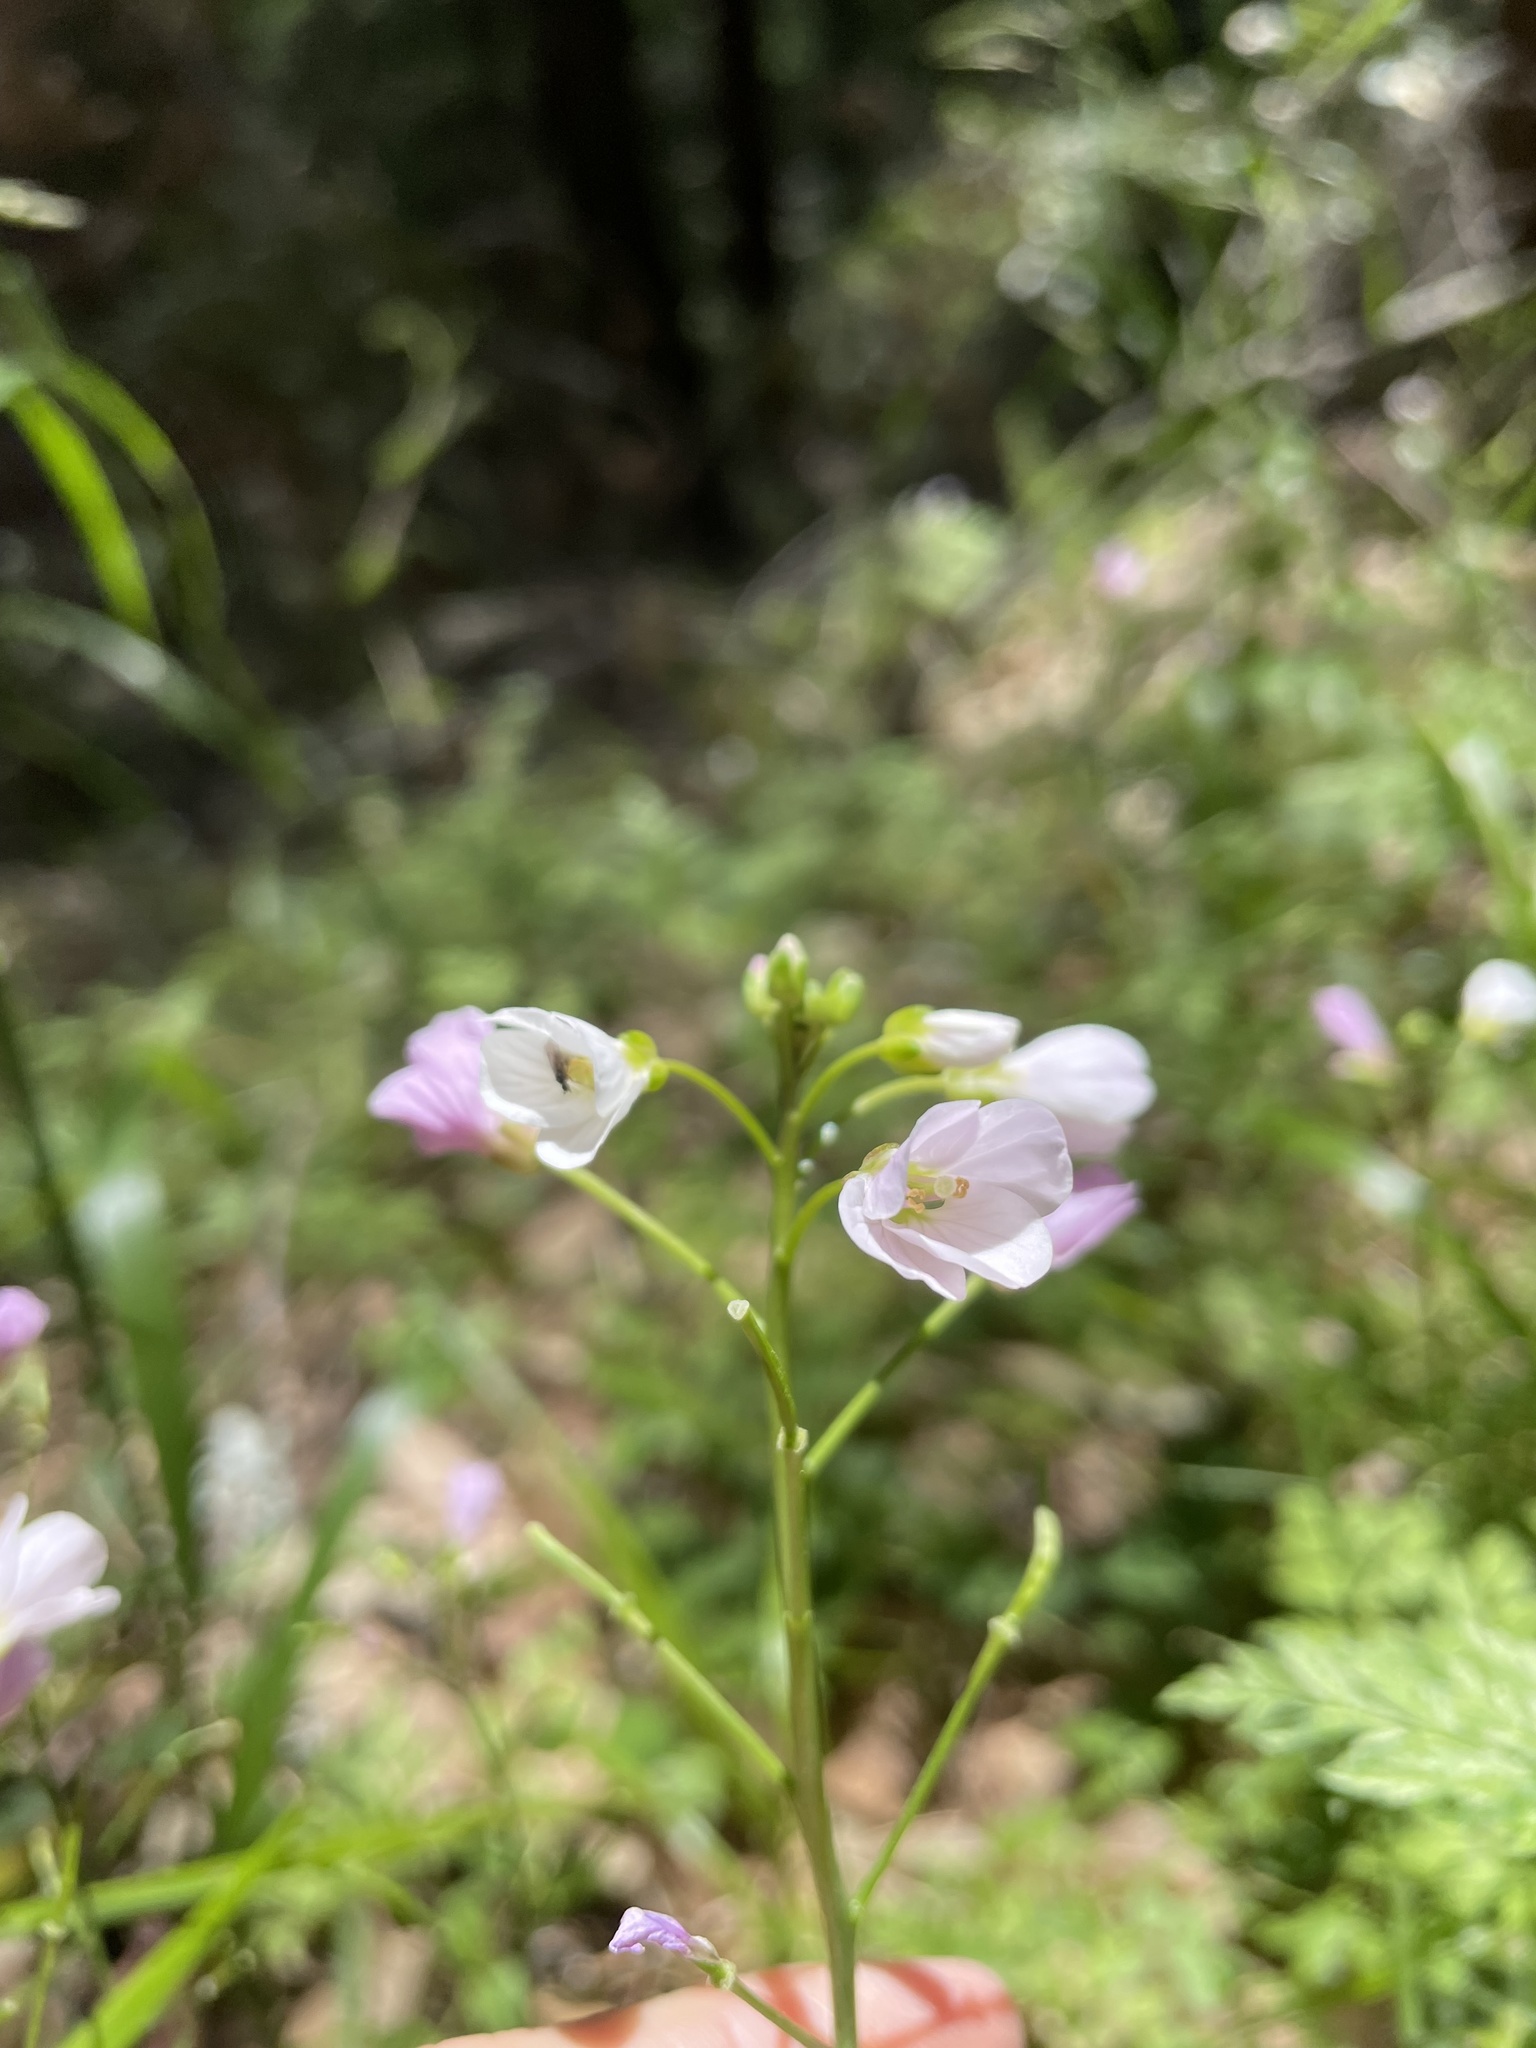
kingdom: Plantae
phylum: Tracheophyta
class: Magnoliopsida
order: Brassicales
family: Brassicaceae
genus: Cardamine
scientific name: Cardamine californica
